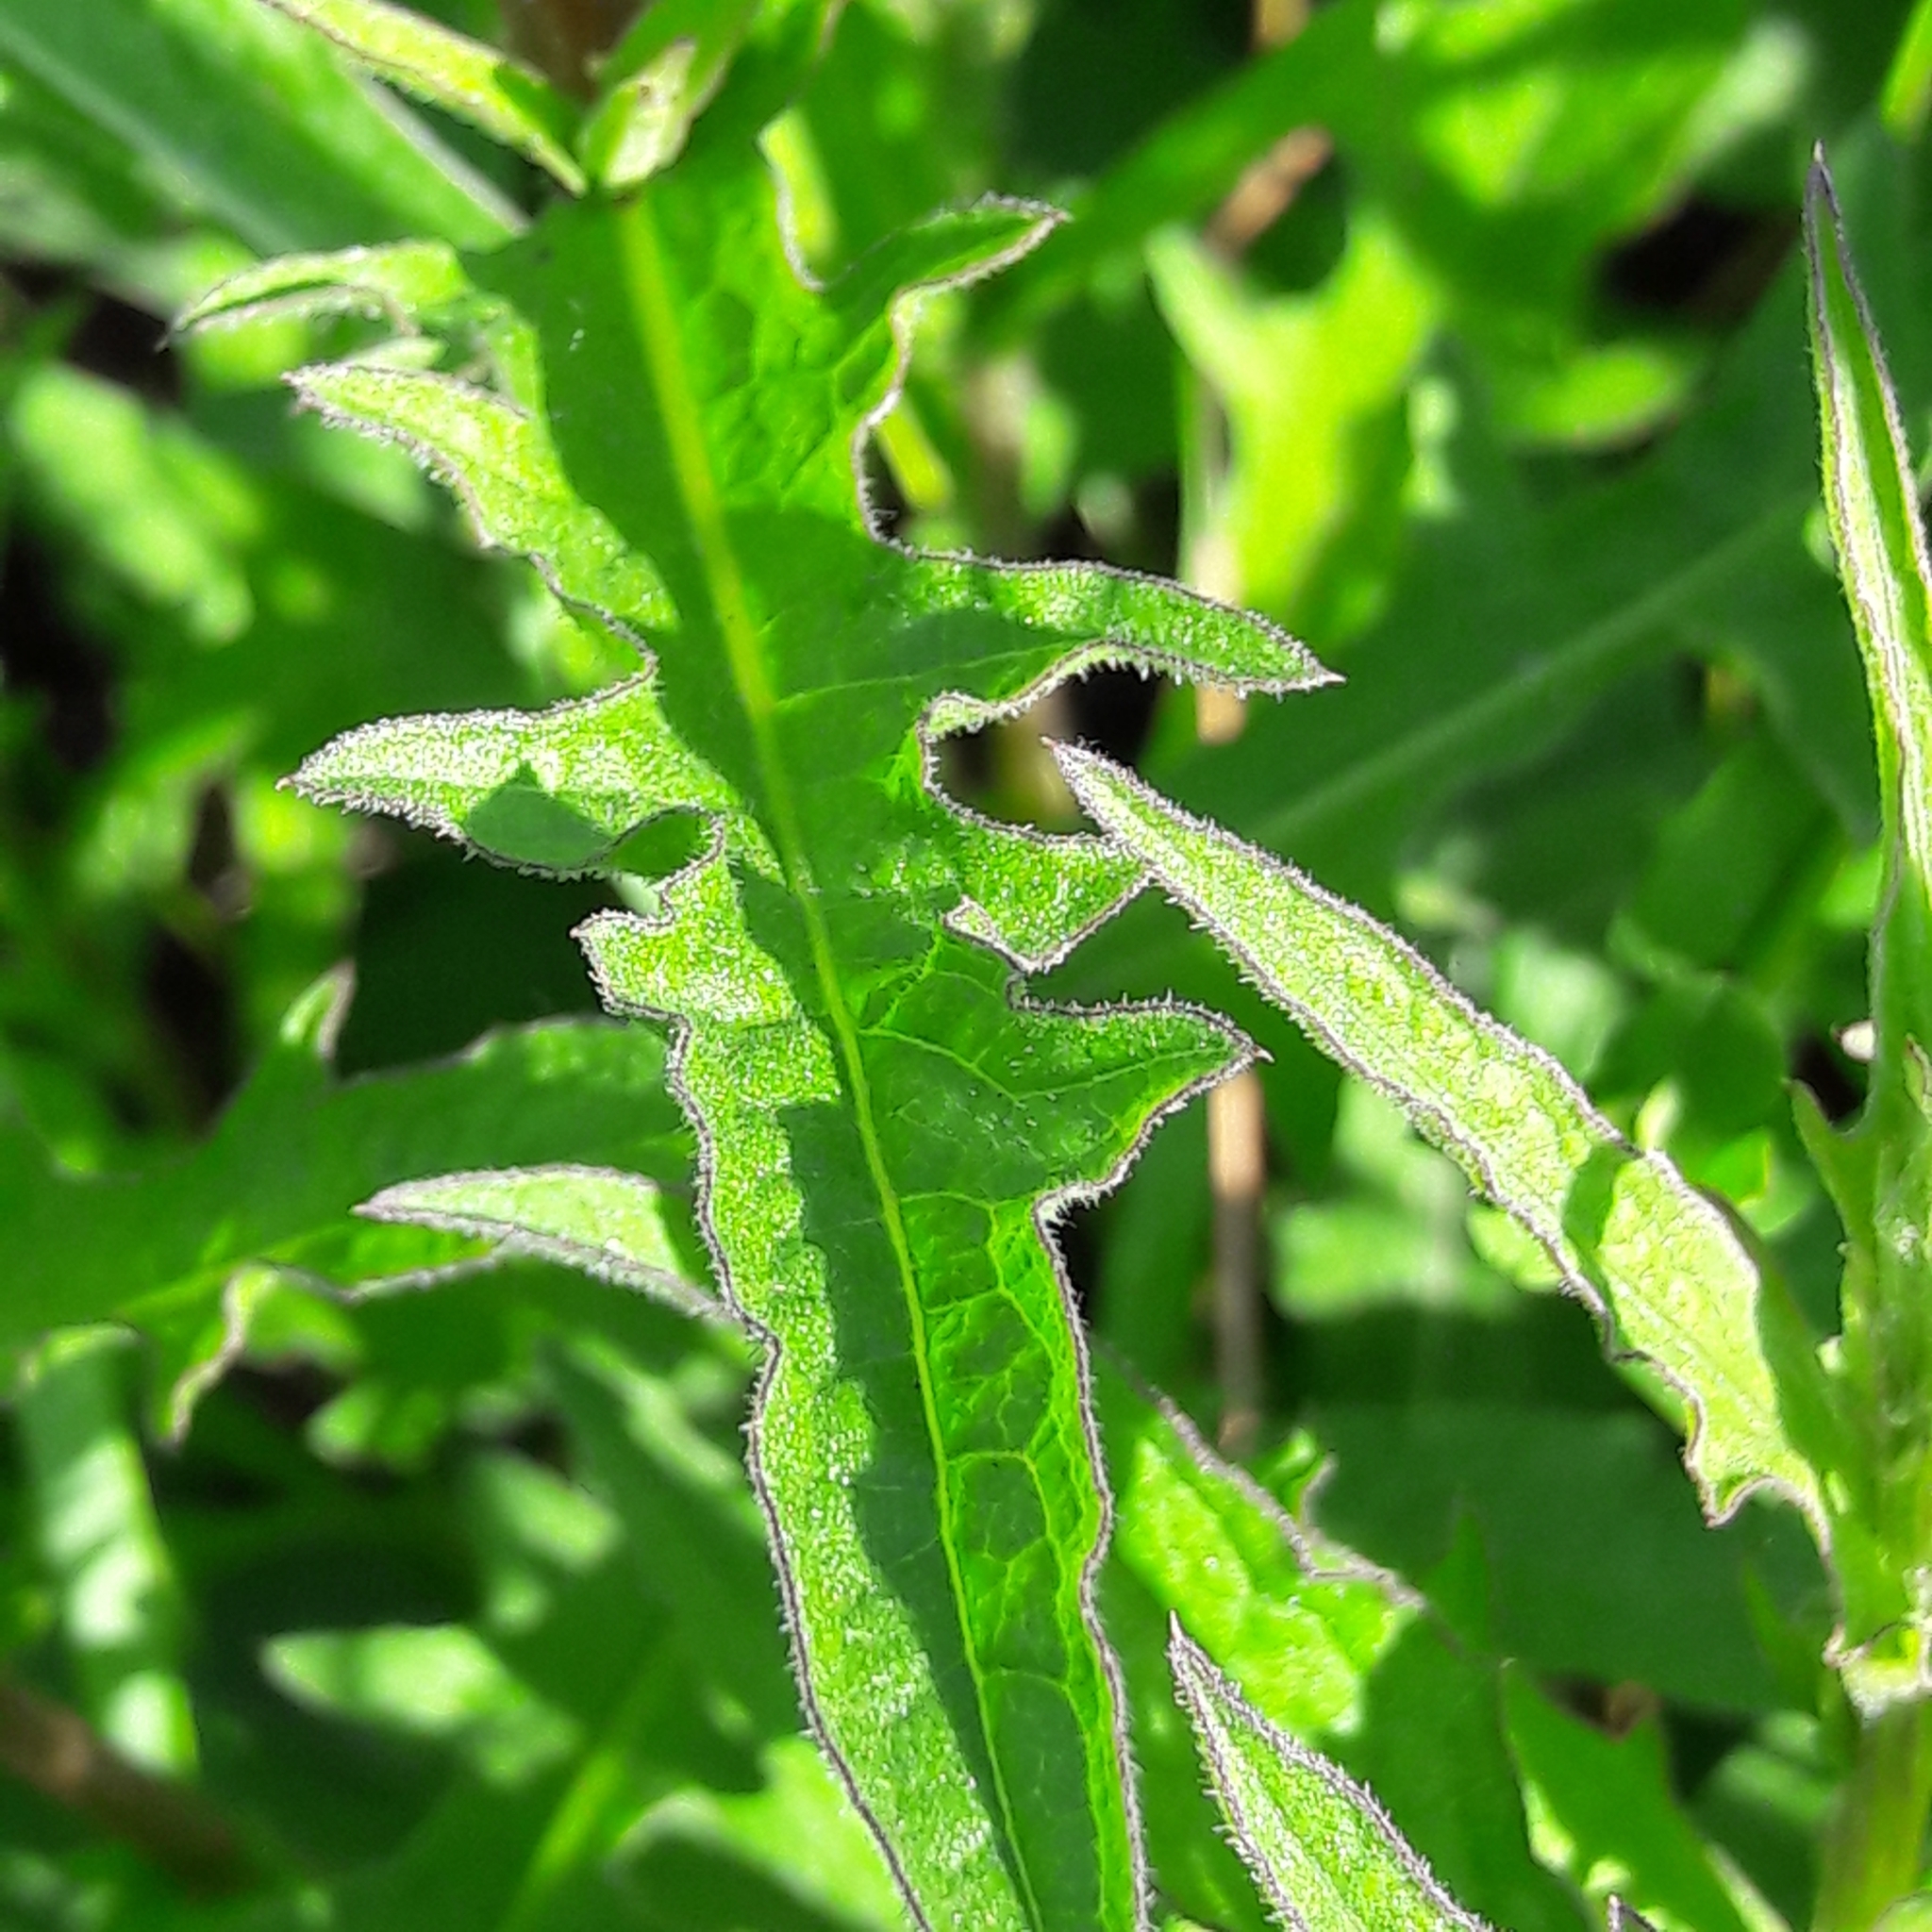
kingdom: Plantae
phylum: Tracheophyta
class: Magnoliopsida
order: Asterales
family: Asteraceae
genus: Cichorium
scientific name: Cichorium intybus
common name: Chicory
